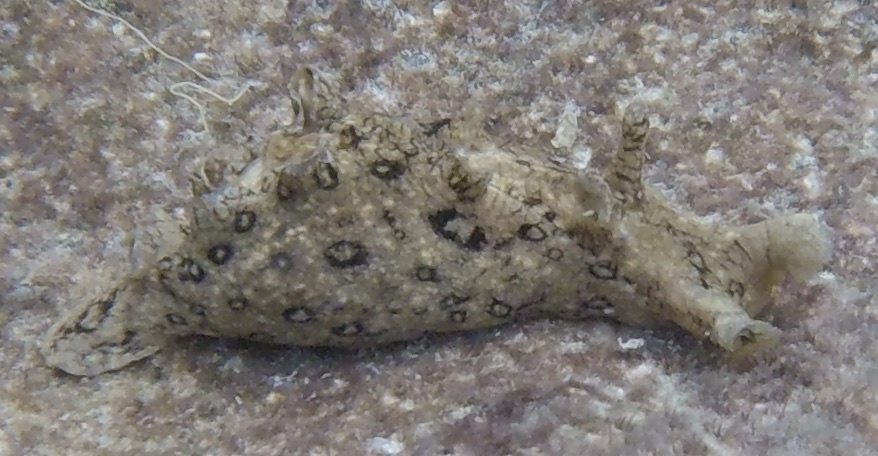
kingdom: Animalia
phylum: Mollusca
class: Gastropoda
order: Aplysiida
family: Aplysiidae
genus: Aplysia
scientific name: Aplysia dactylomela
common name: Large-spotted sea hare
